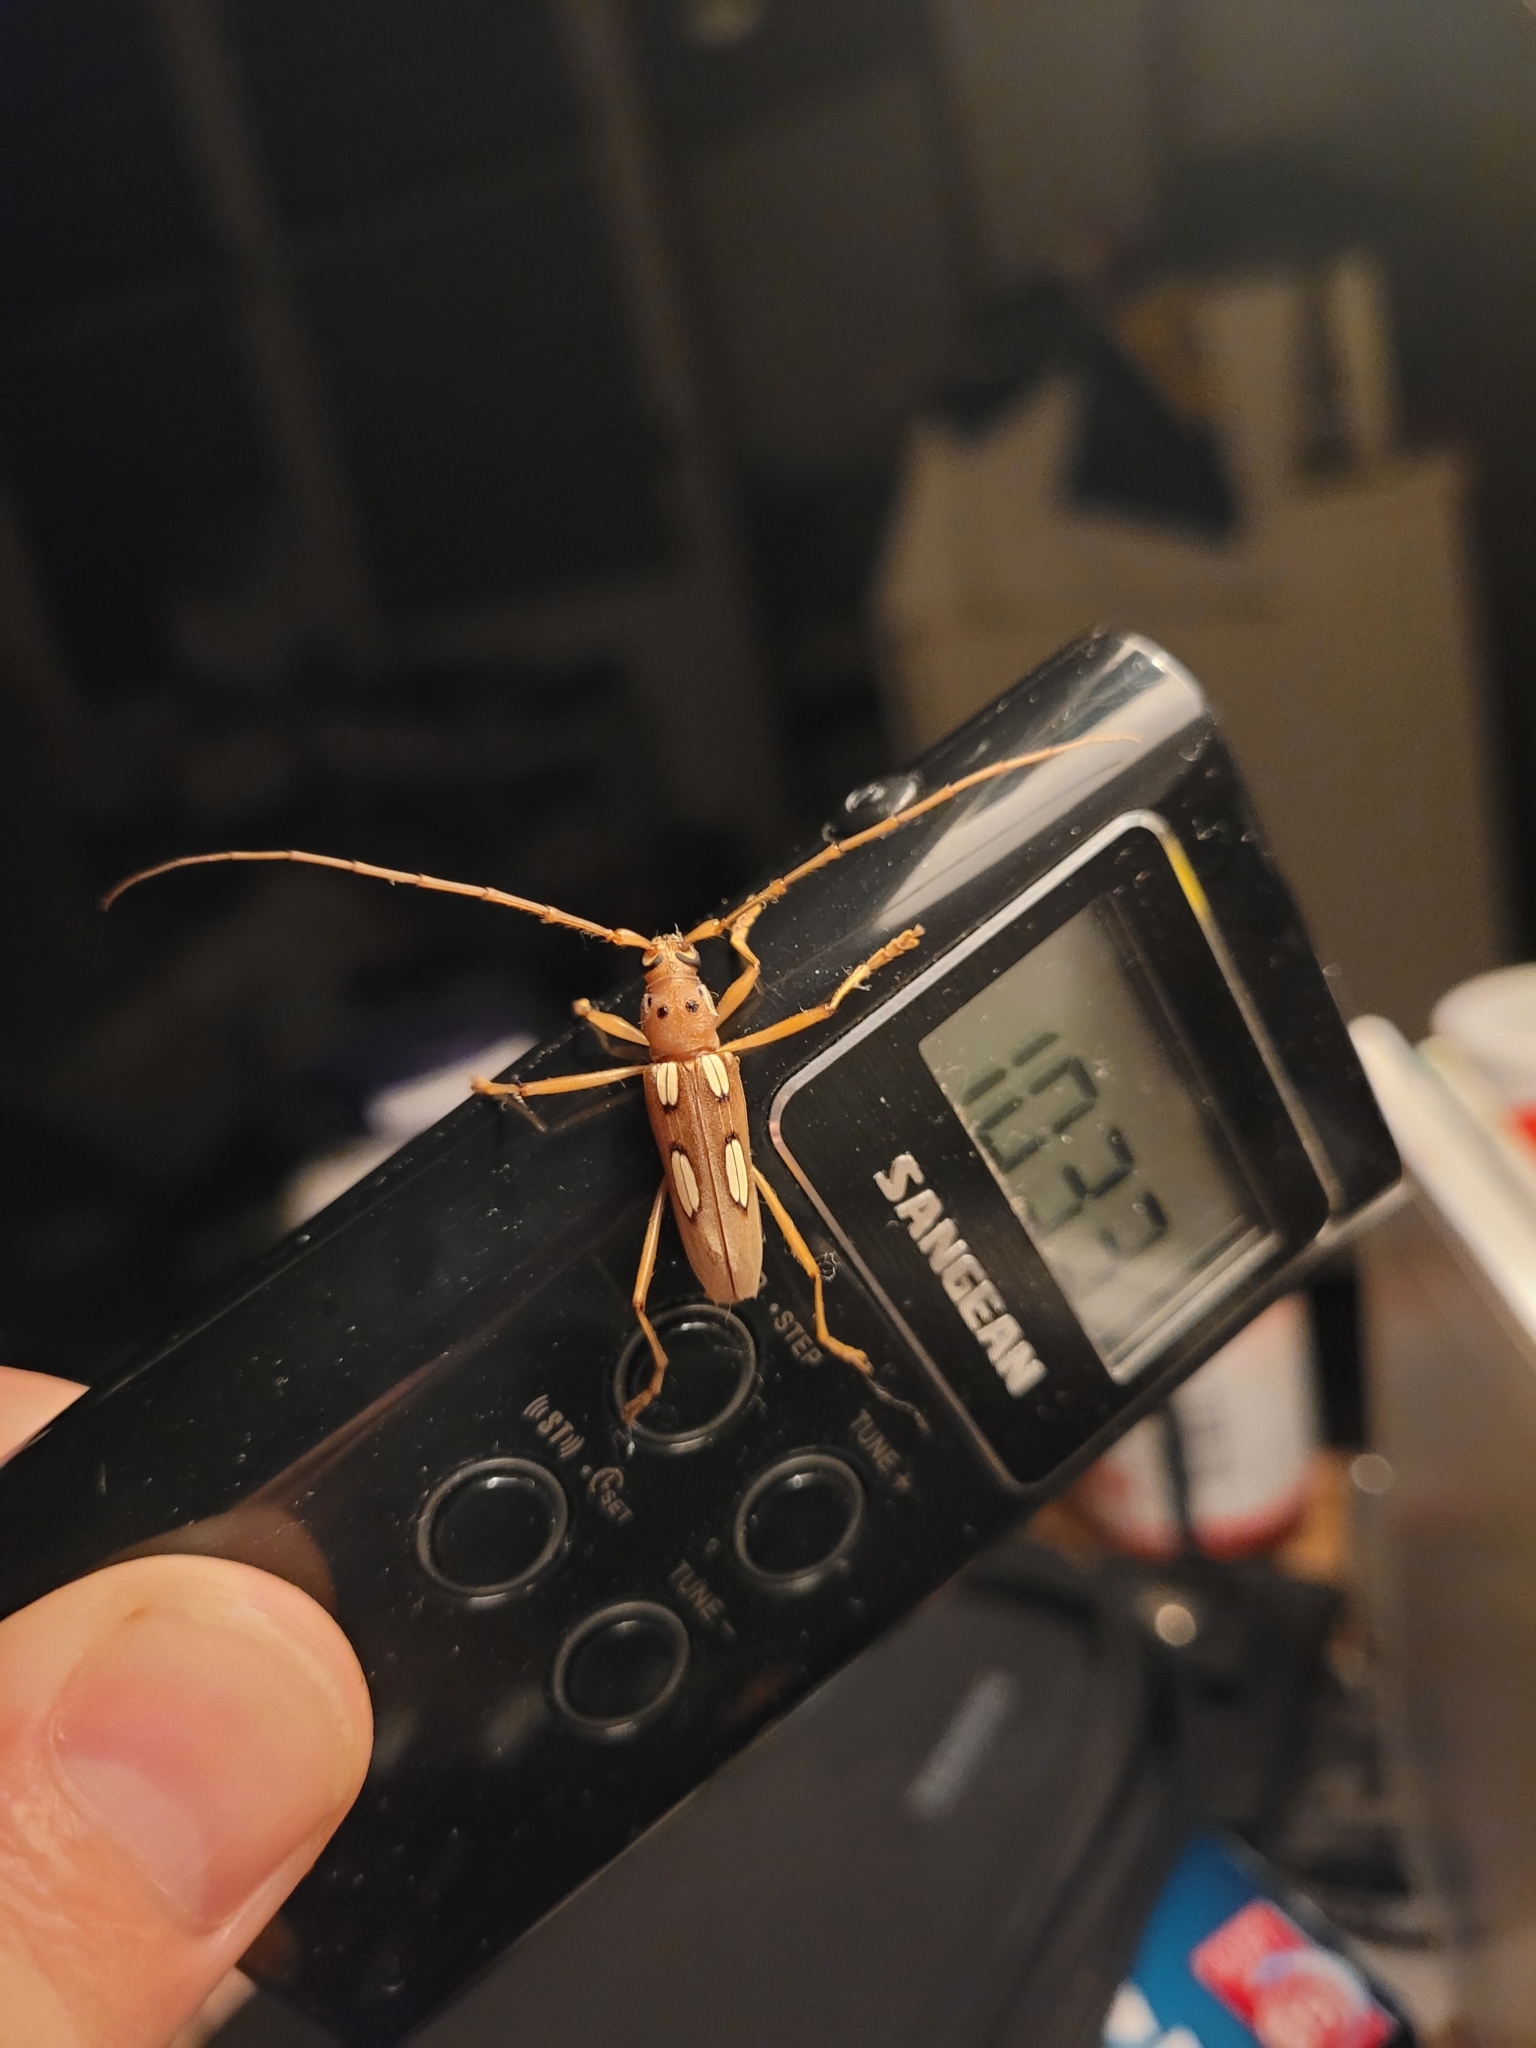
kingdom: Animalia
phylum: Arthropoda
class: Insecta
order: Coleoptera
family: Cerambycidae
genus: Eburia
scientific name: Eburia quadrimaculata
